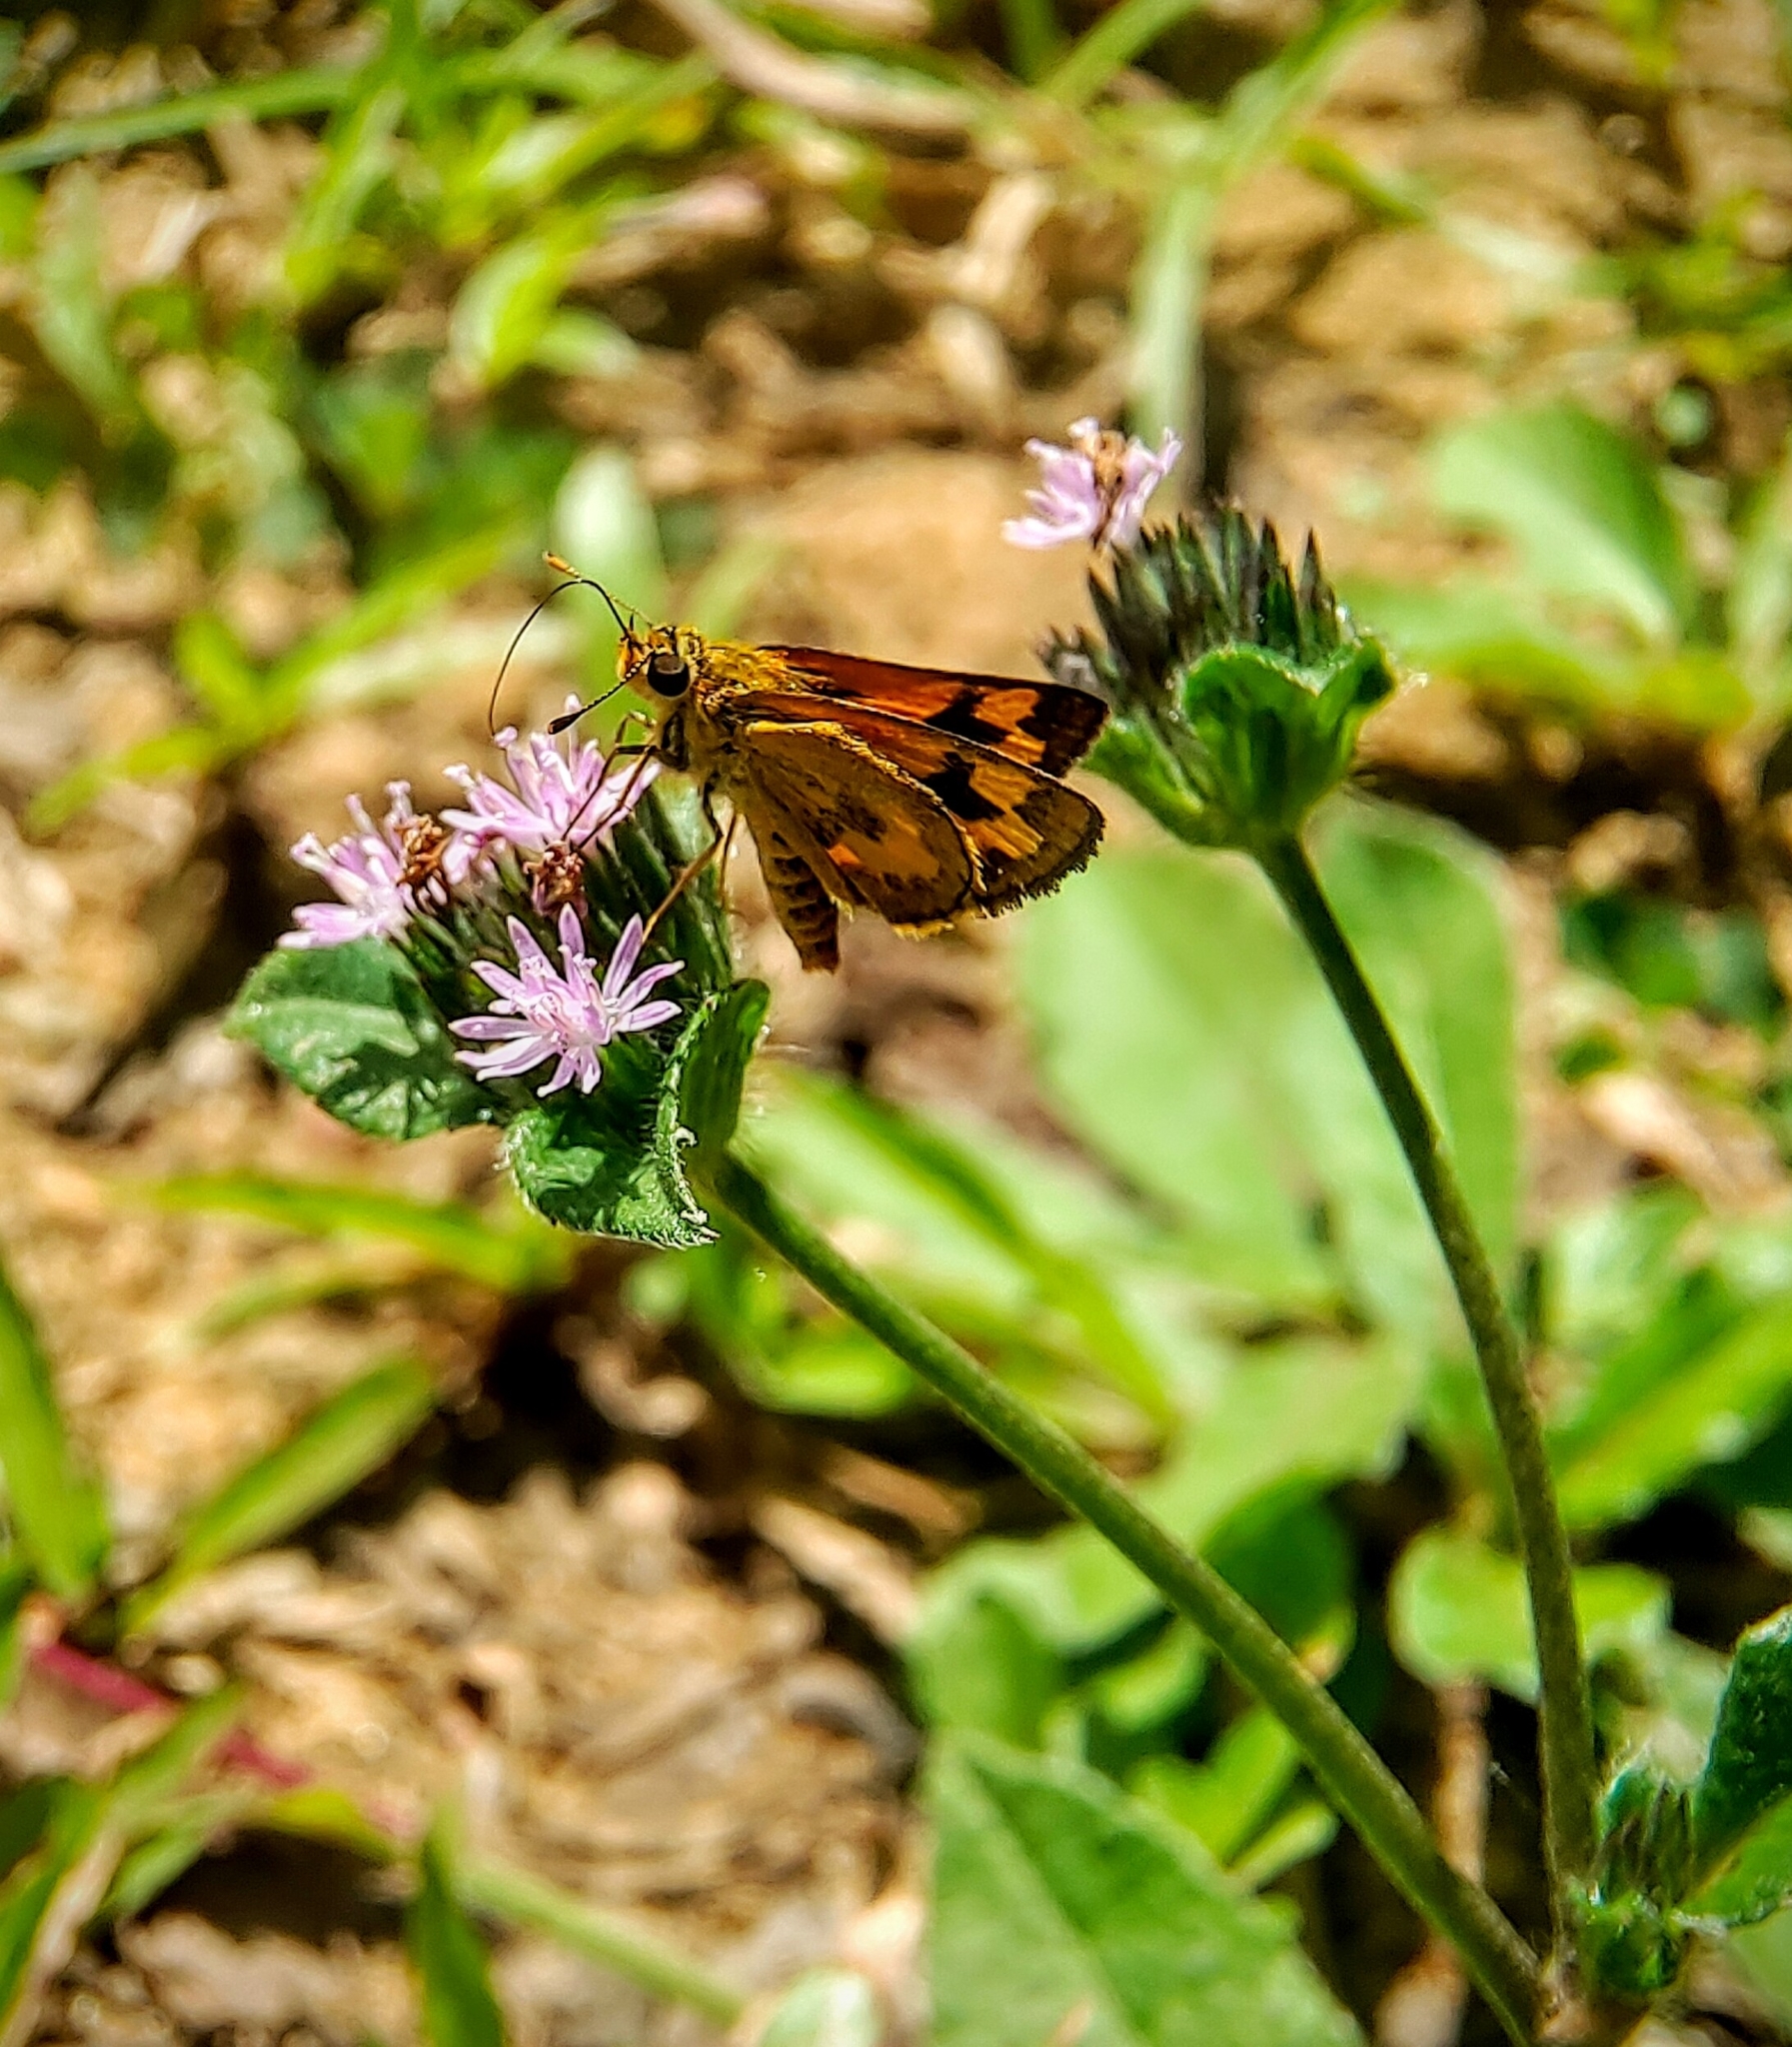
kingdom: Animalia
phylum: Arthropoda
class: Insecta
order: Lepidoptera
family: Hesperiidae
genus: Taractrocera
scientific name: Taractrocera archias
